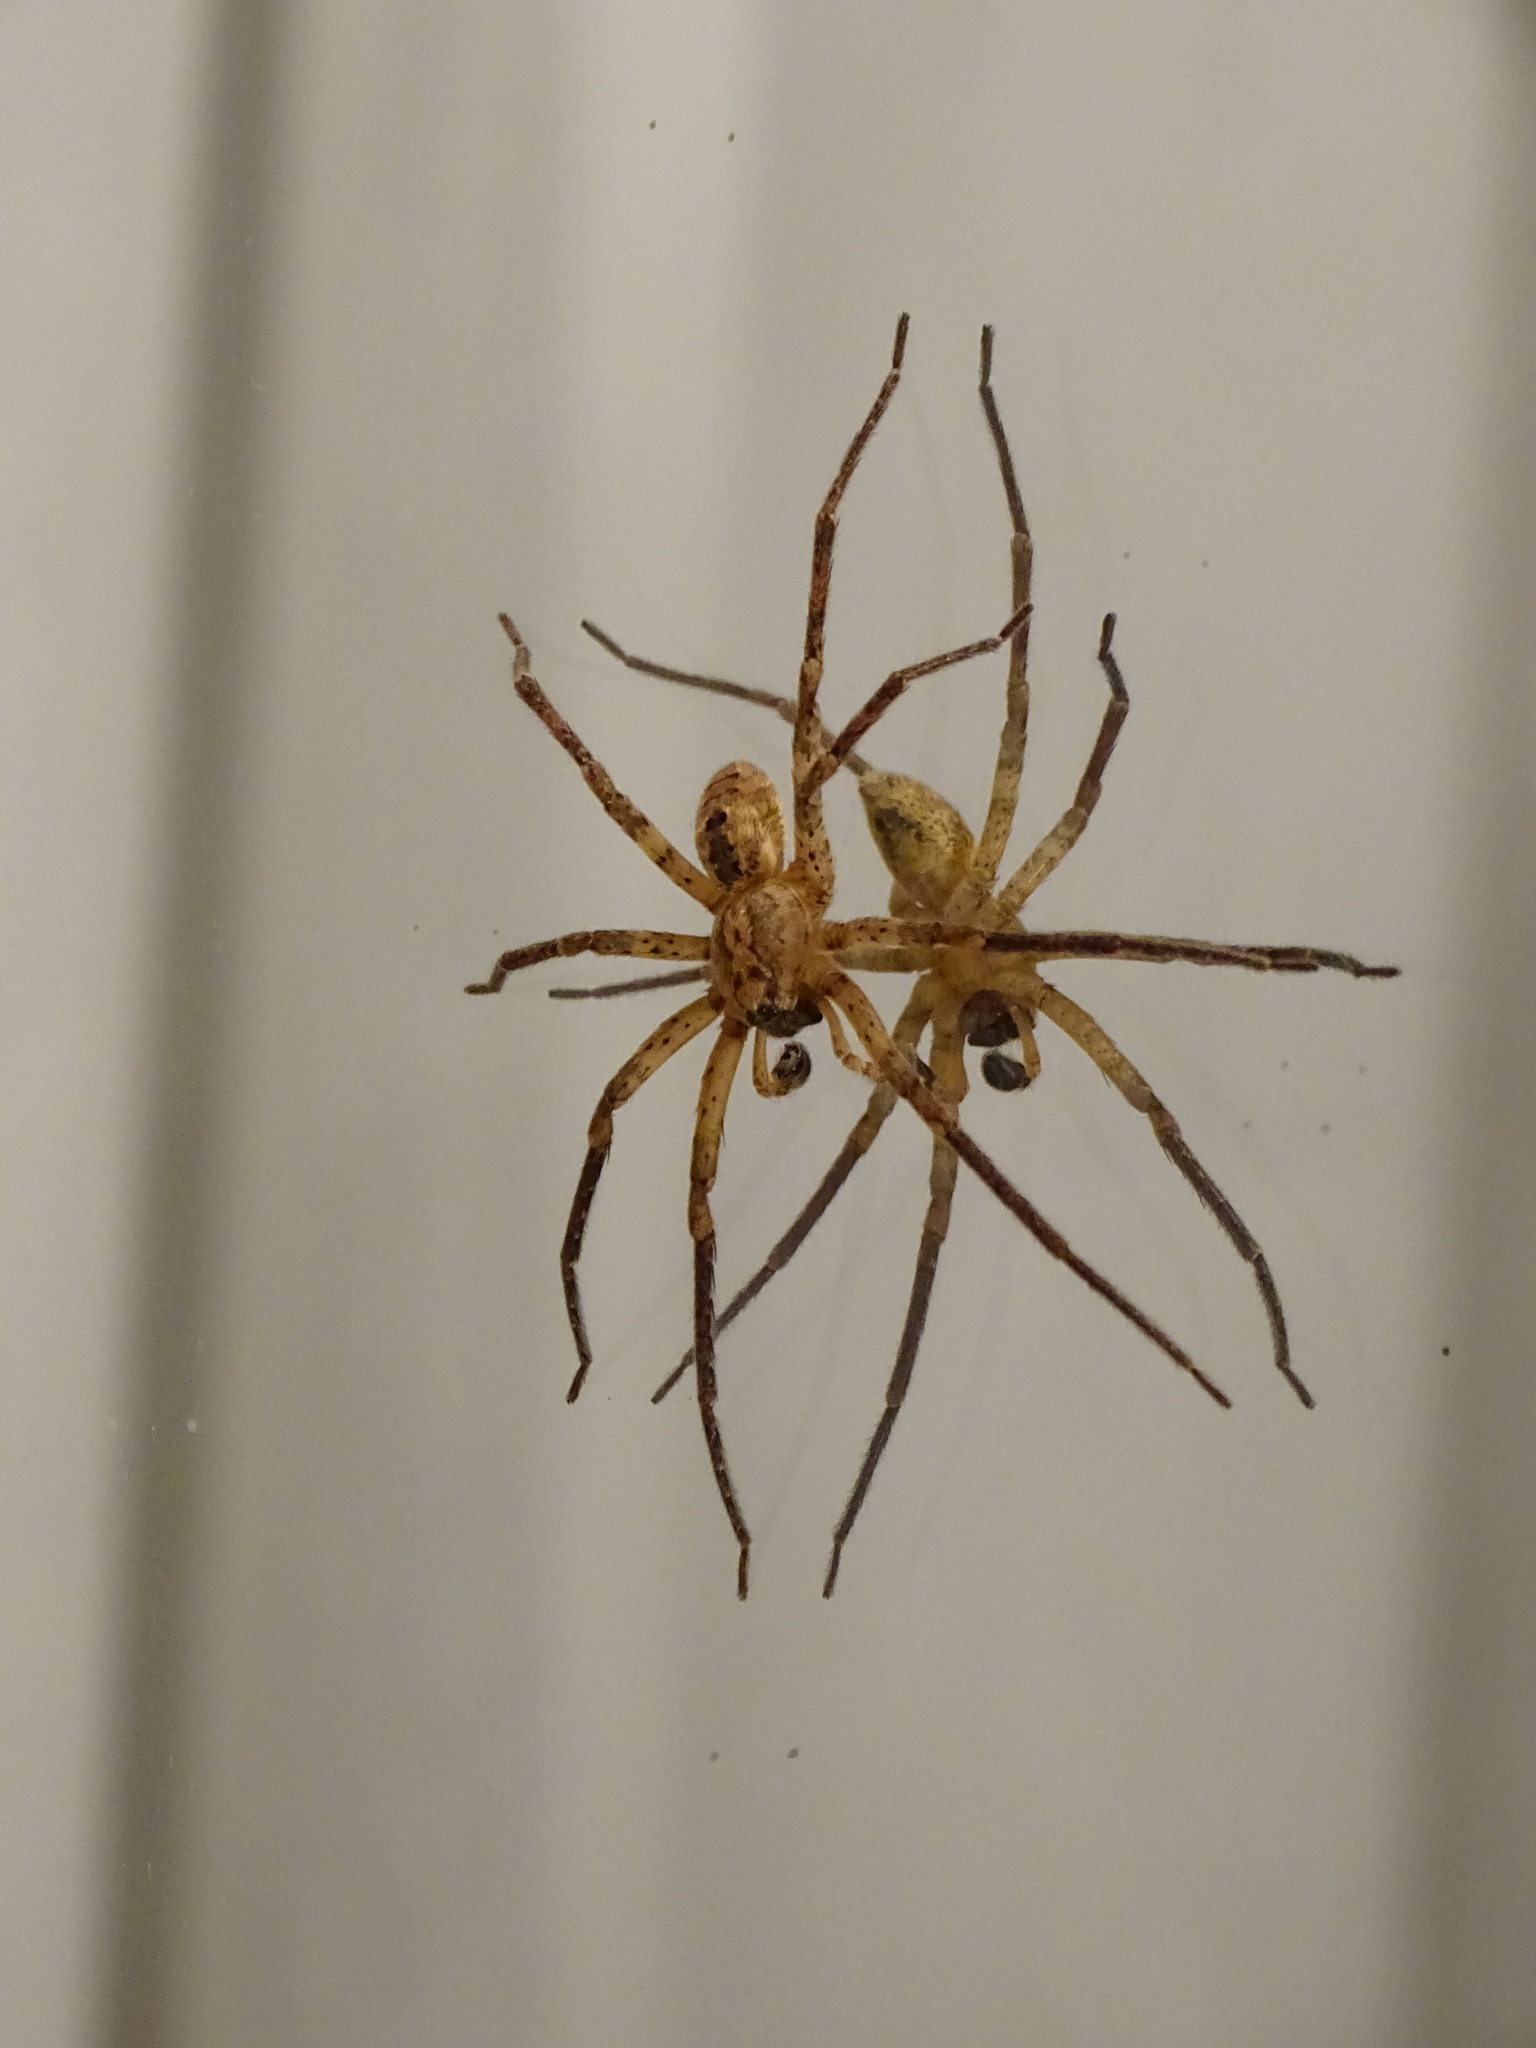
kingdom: Animalia
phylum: Arthropoda
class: Arachnida
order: Araneae
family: Zoropsidae
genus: Zoropsis
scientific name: Zoropsis spinimana
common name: Zoropsid spider
